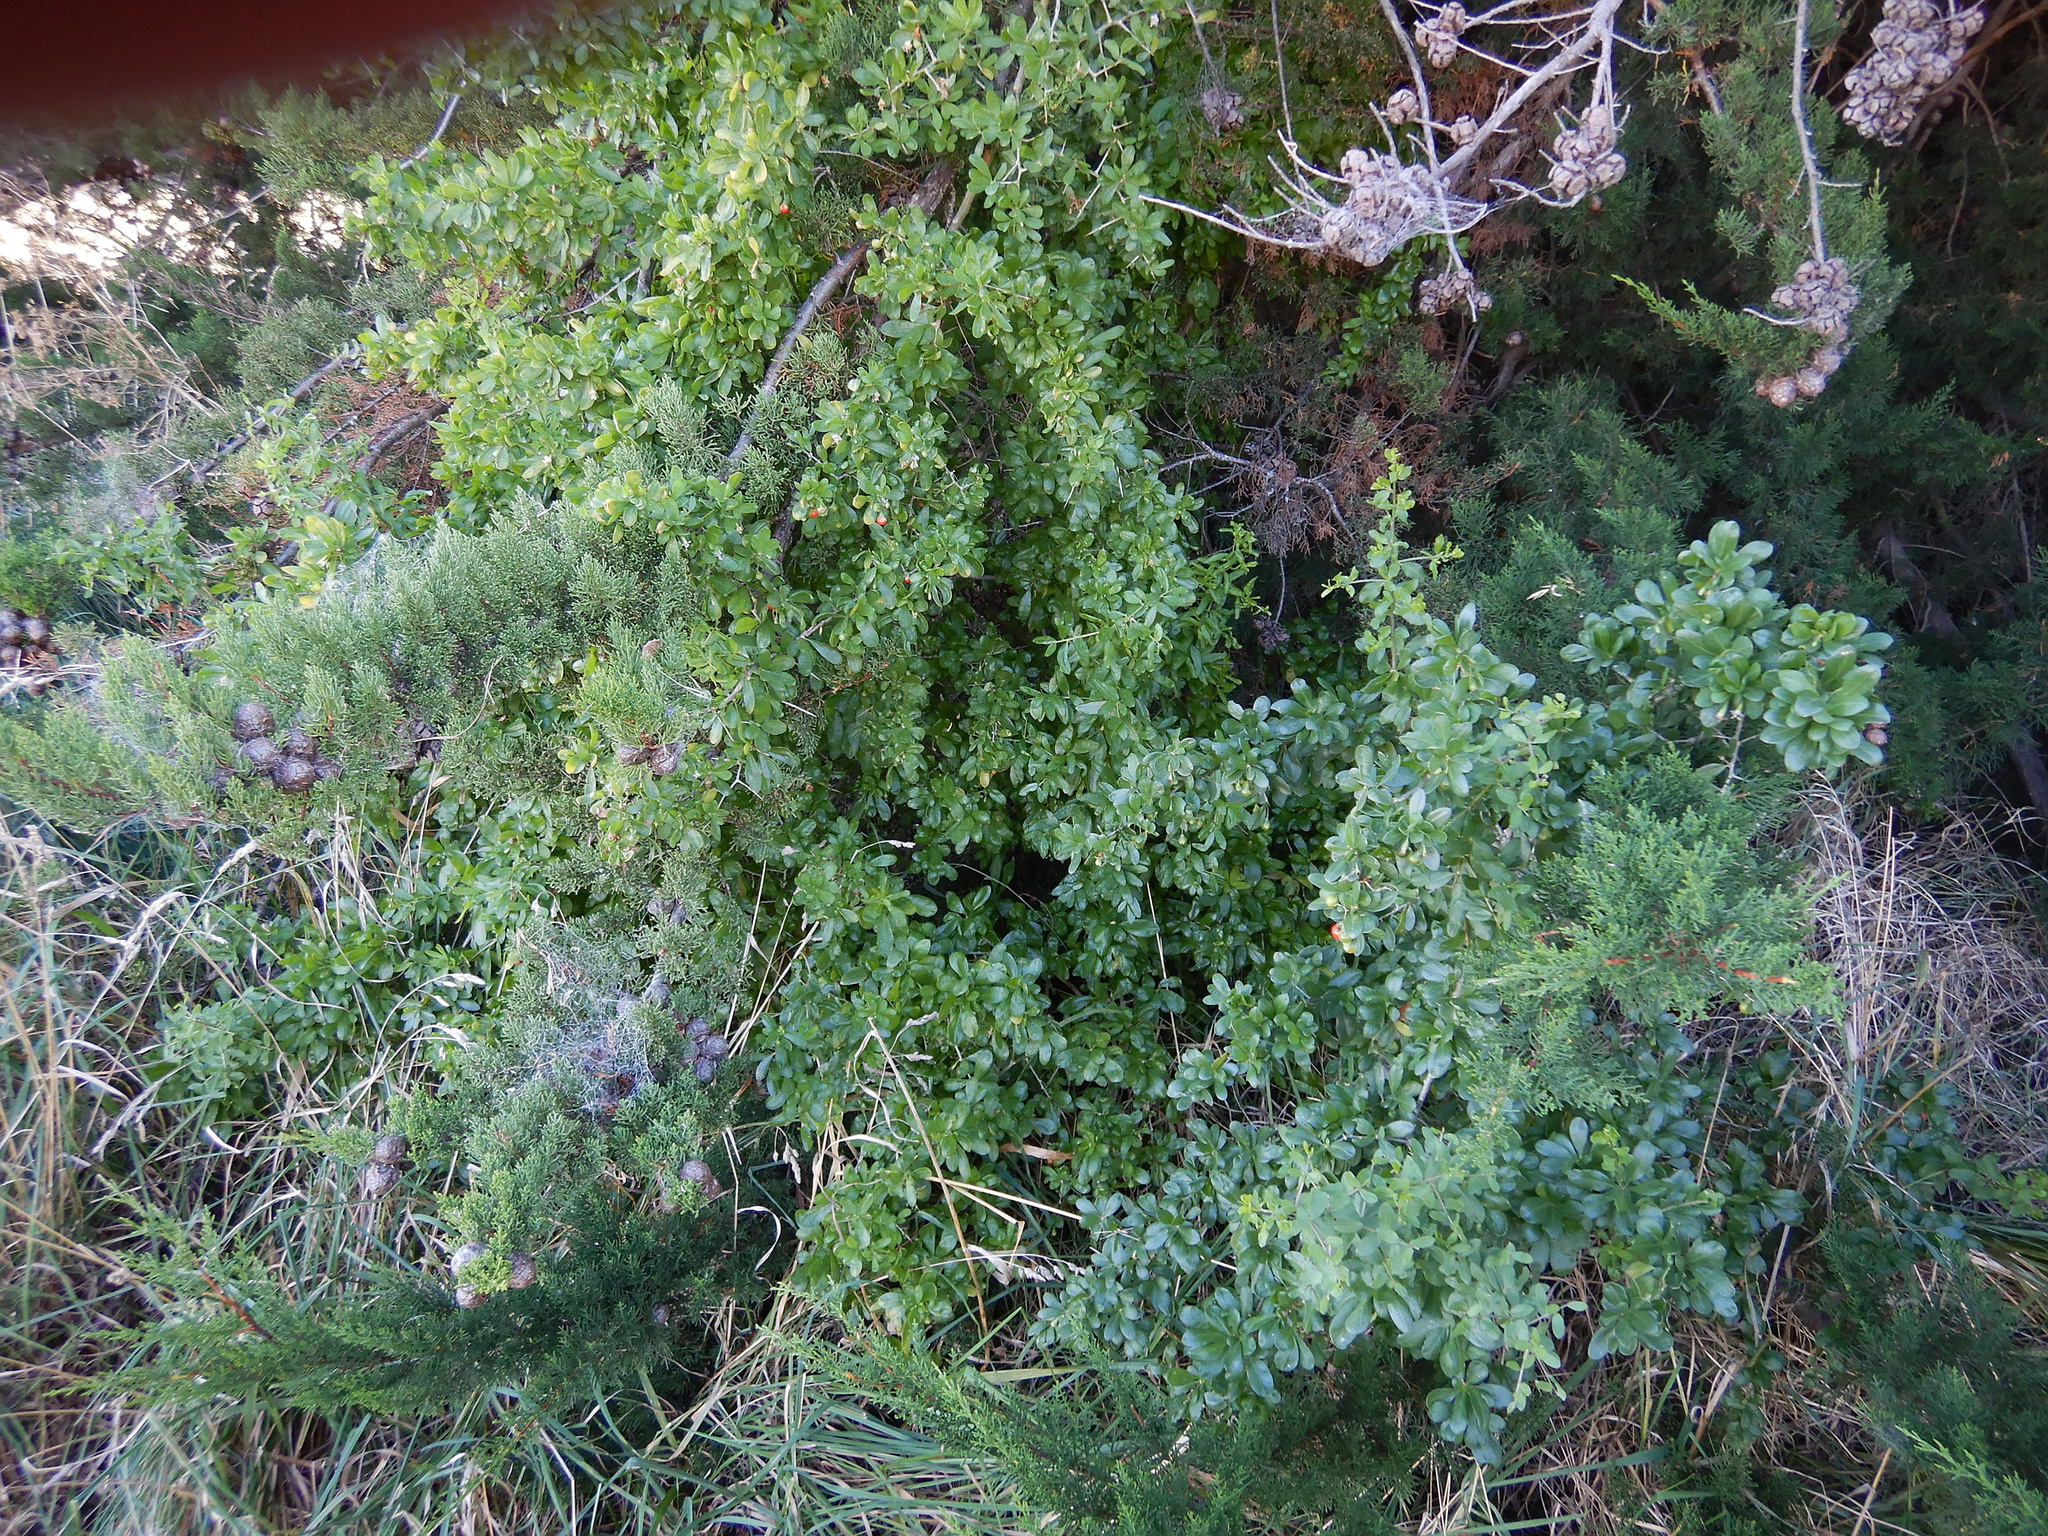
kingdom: Plantae
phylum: Tracheophyta
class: Magnoliopsida
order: Solanales
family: Solanaceae
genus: Lycium
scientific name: Lycium ferocissimum
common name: African boxthorn
